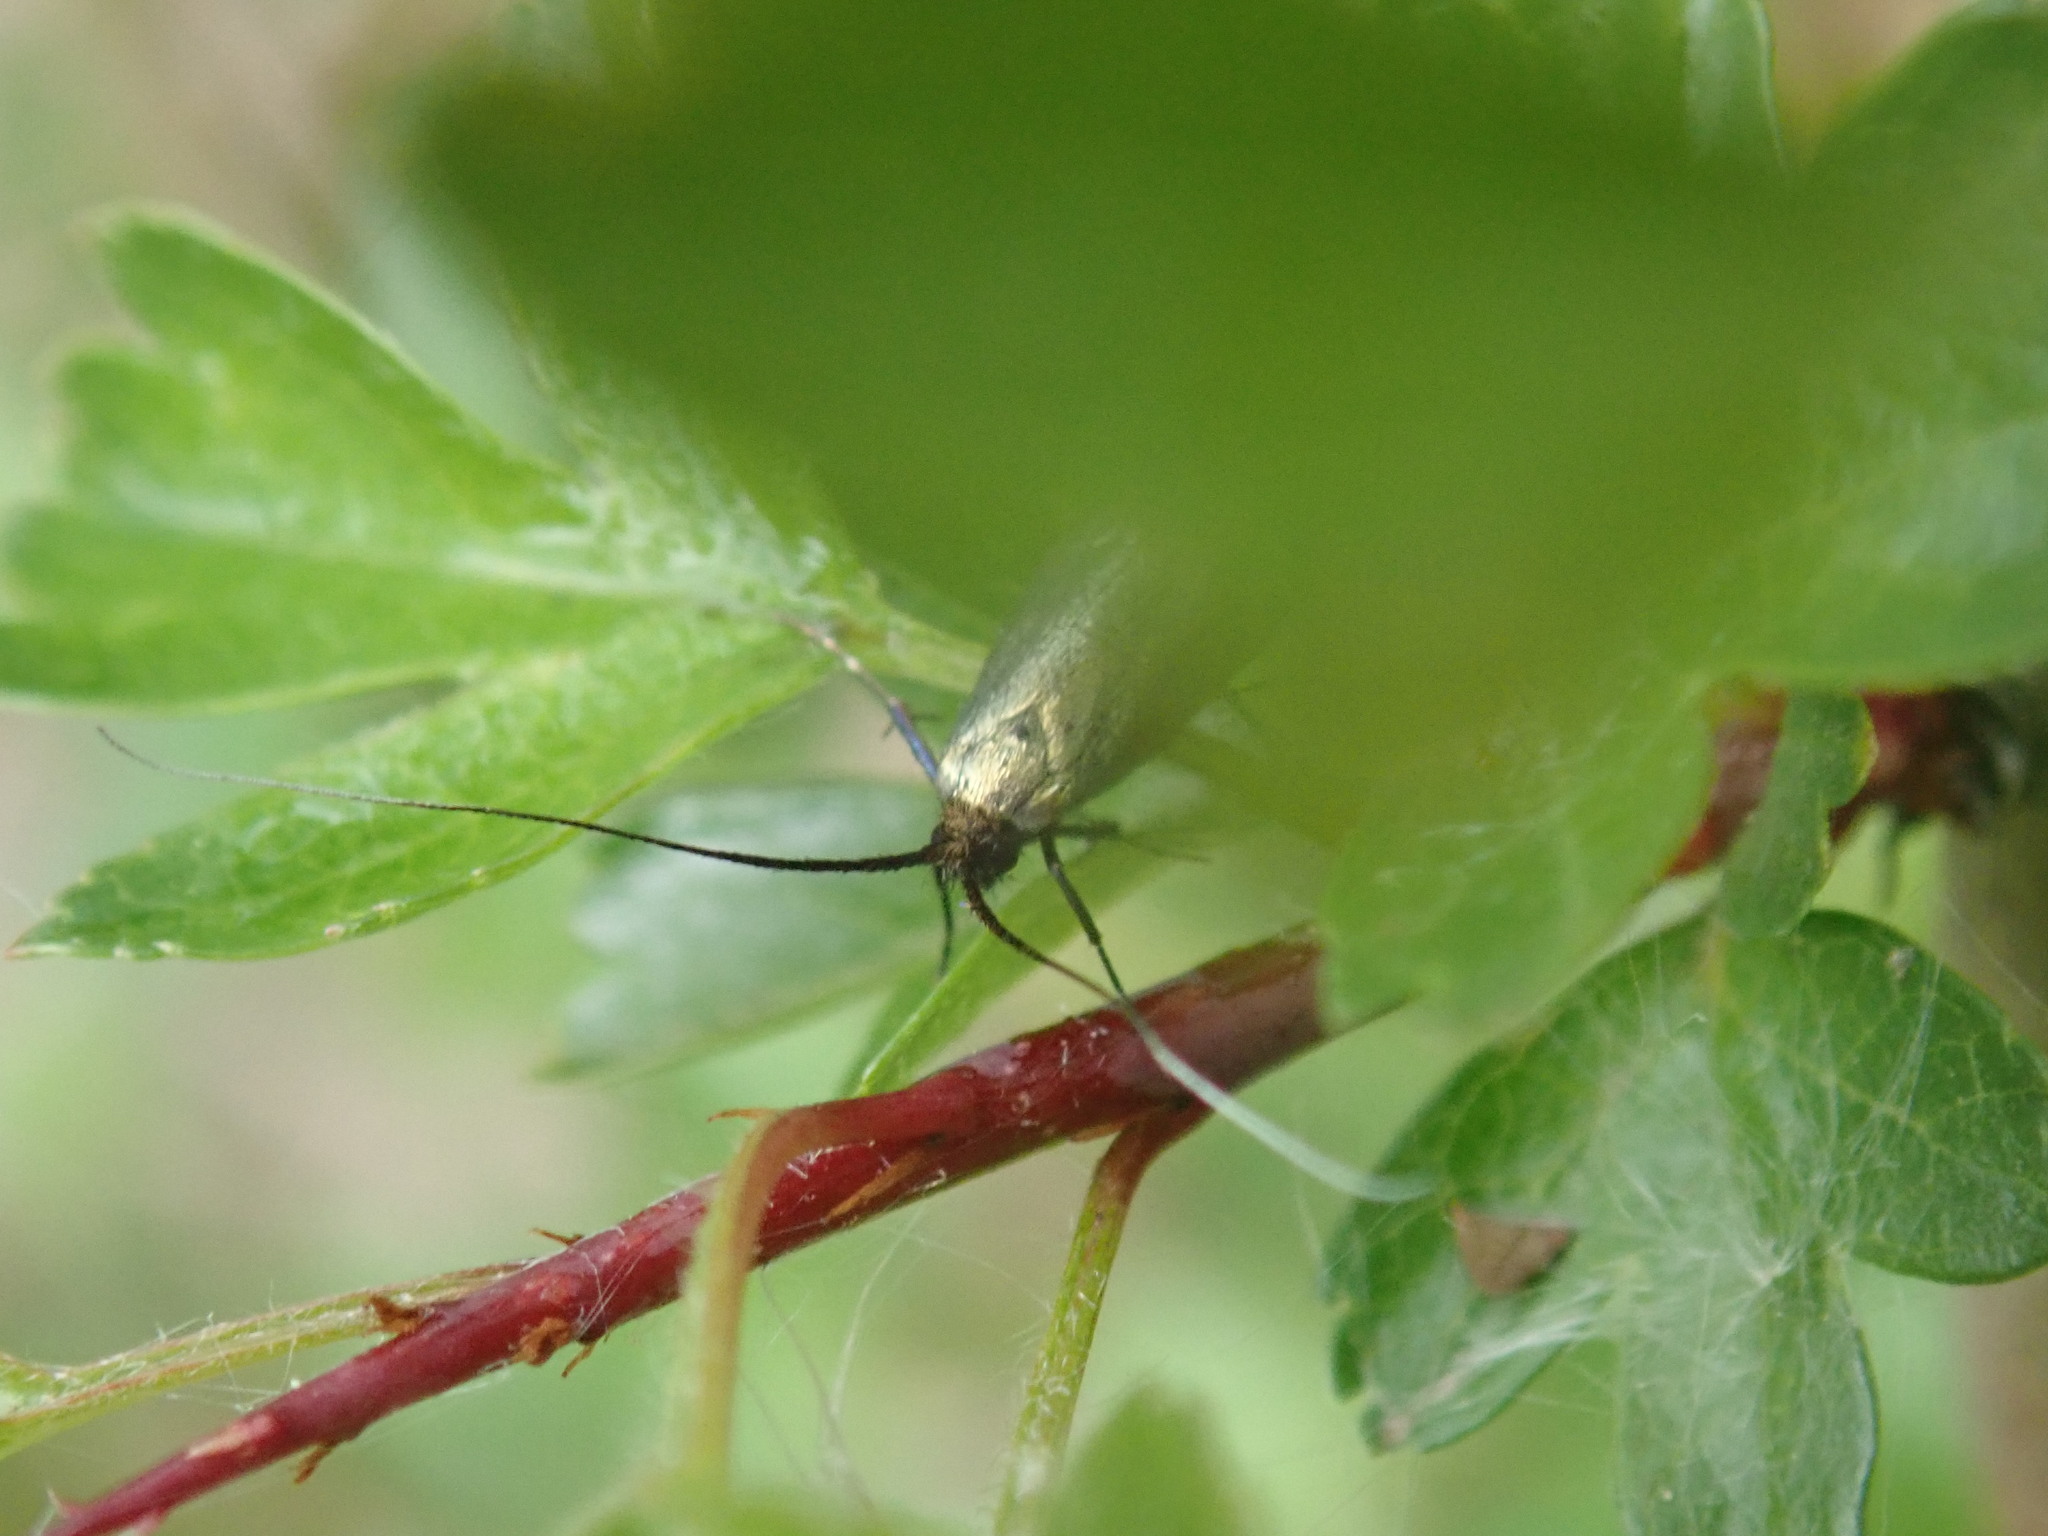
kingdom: Animalia
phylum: Arthropoda
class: Insecta
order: Lepidoptera
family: Adelidae
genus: Adela
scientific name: Adela viridella
